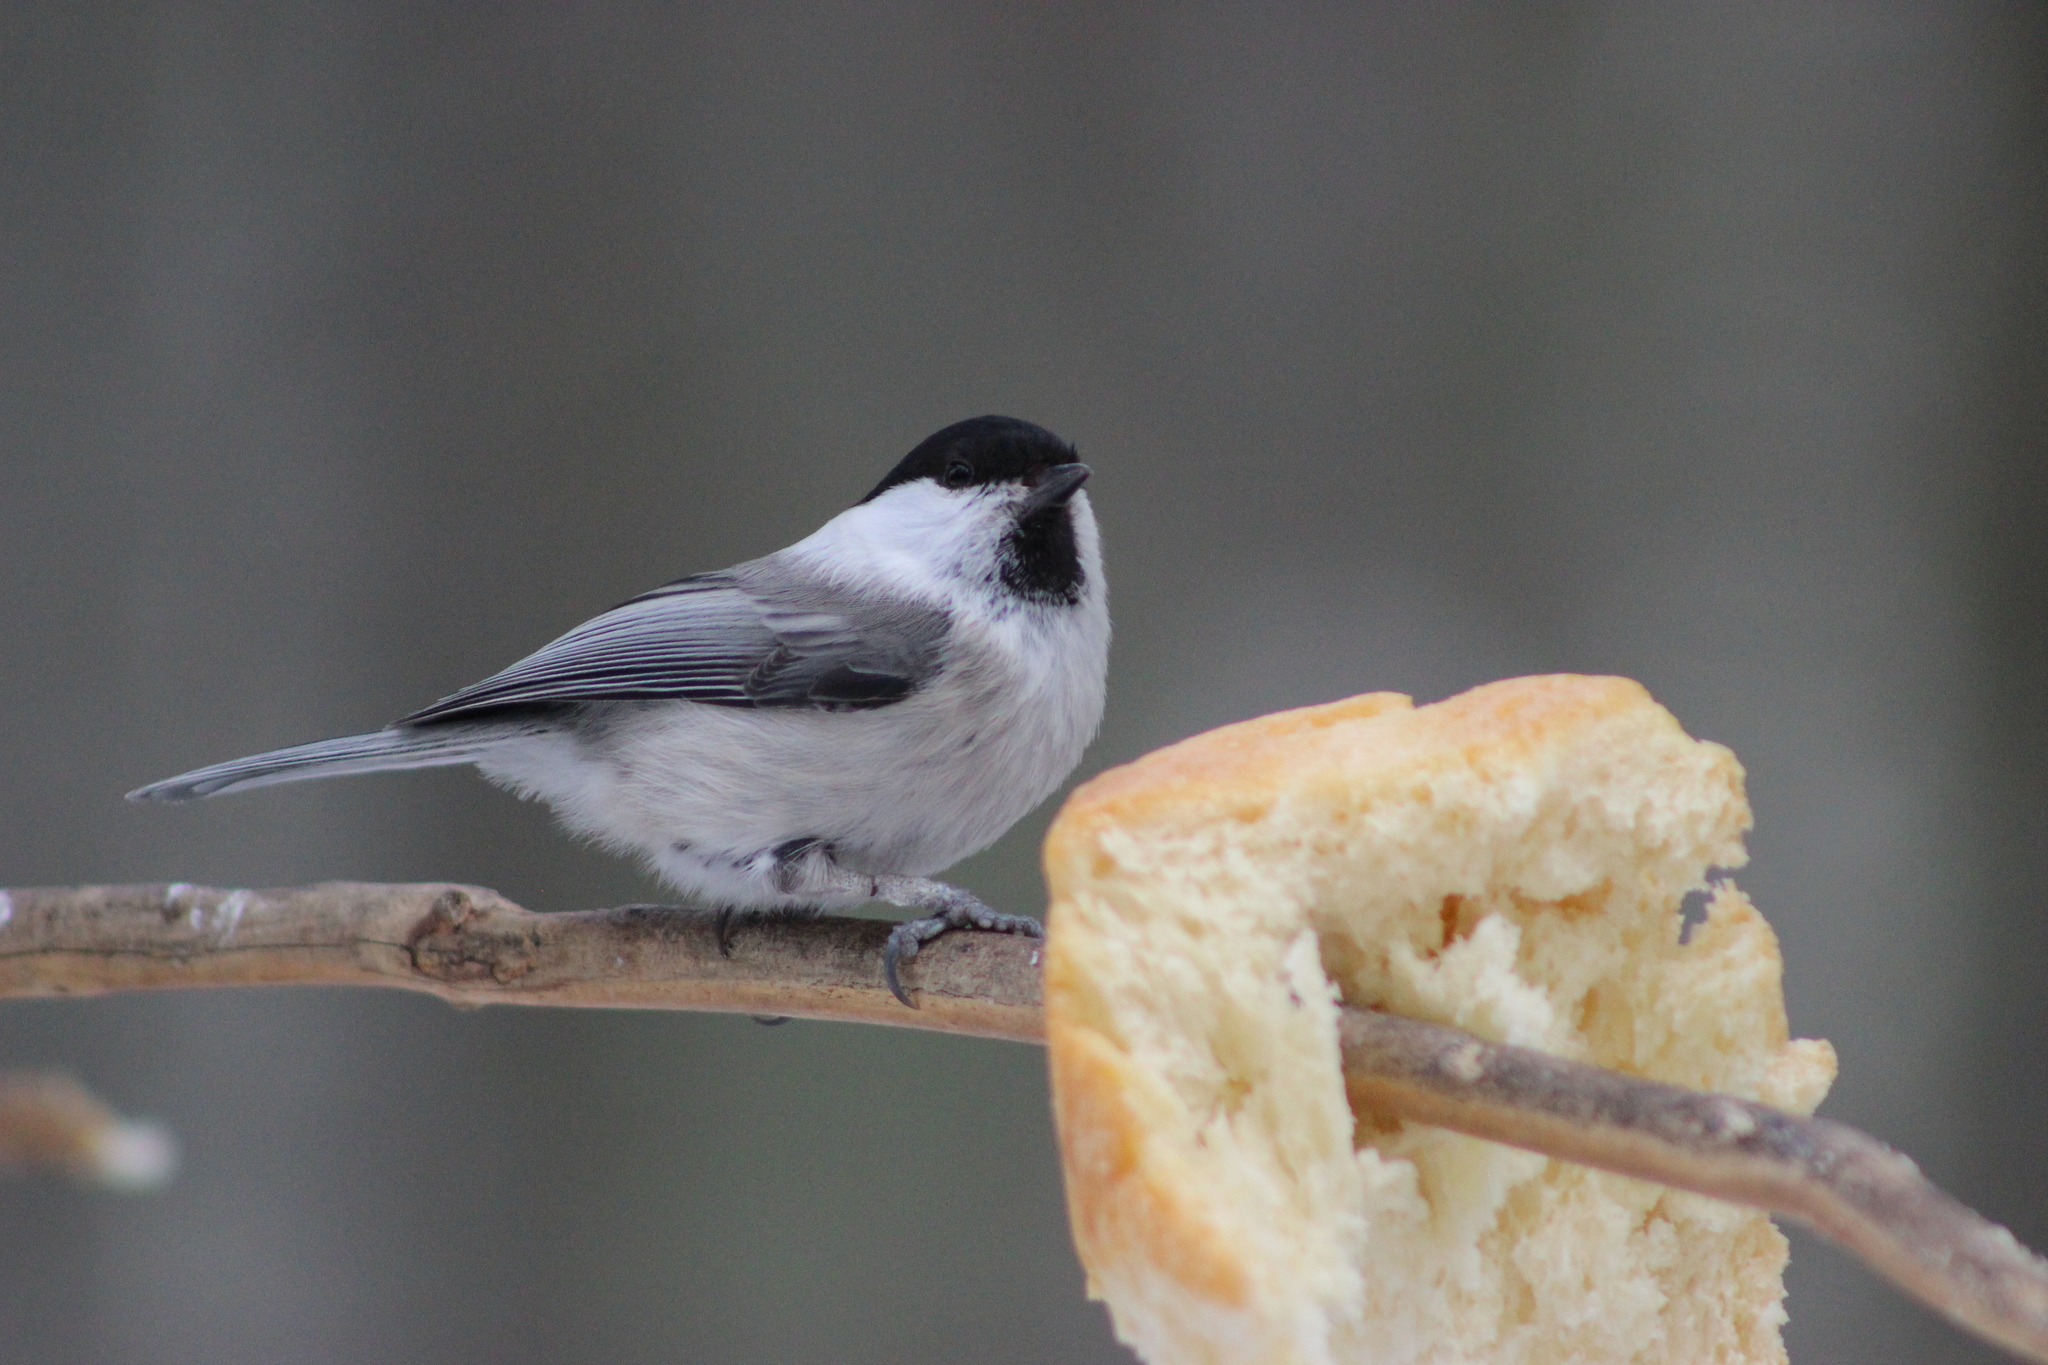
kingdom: Animalia
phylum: Chordata
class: Aves
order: Passeriformes
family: Paridae
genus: Poecile
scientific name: Poecile montanus
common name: Willow tit
